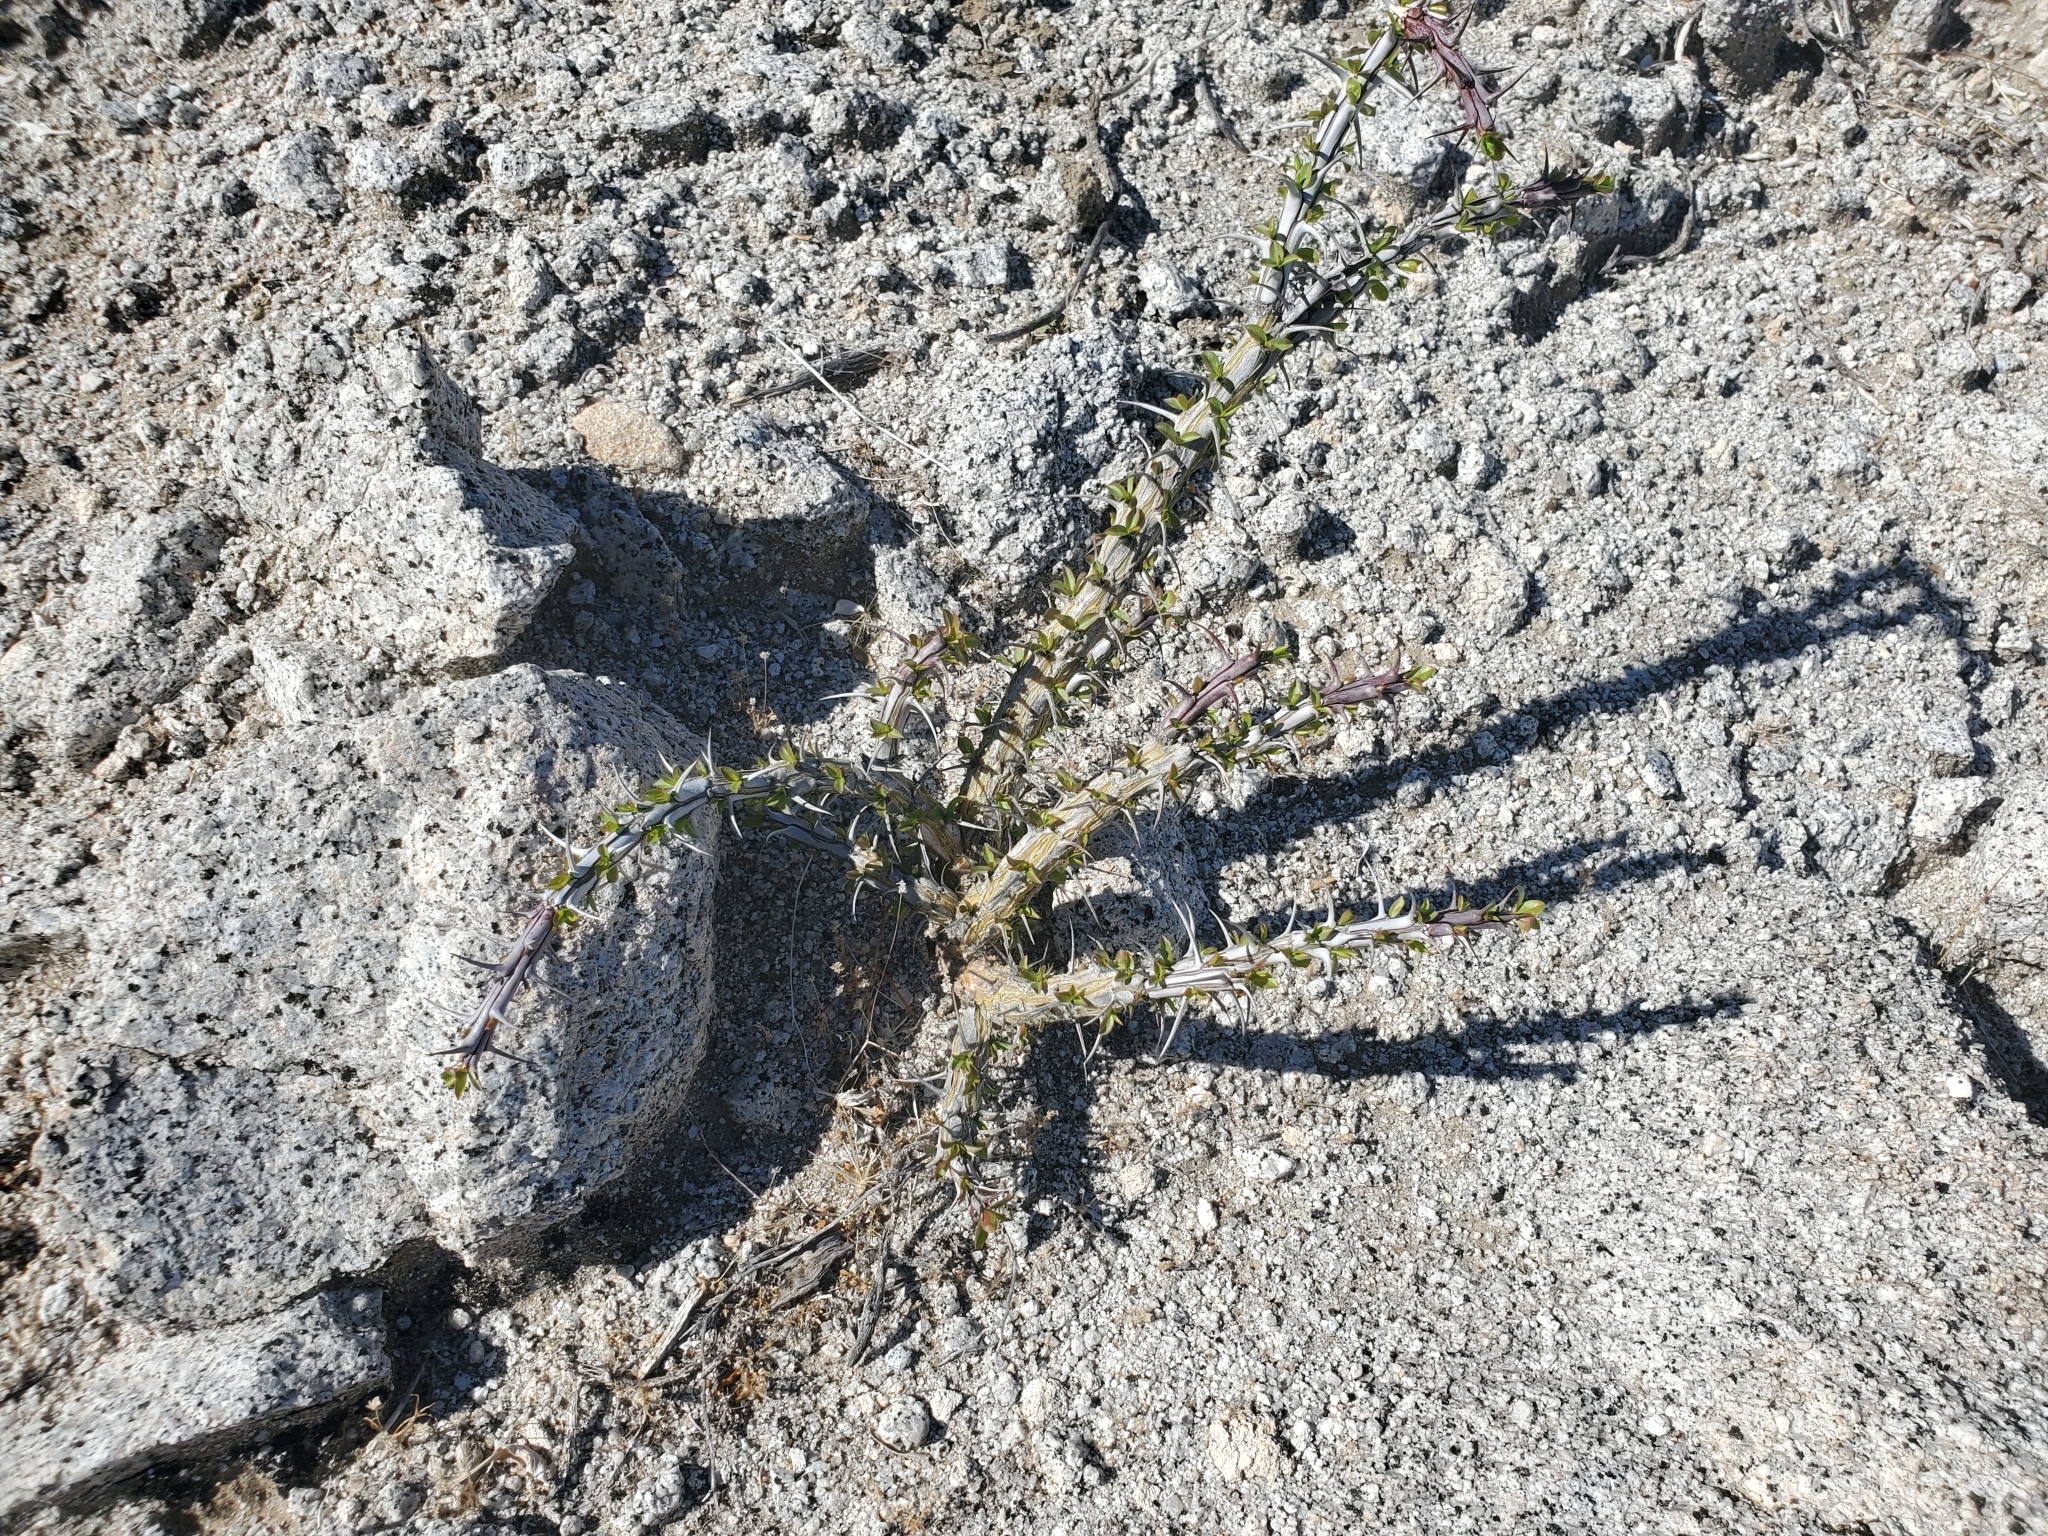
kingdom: Plantae
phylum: Tracheophyta
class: Magnoliopsida
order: Ericales
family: Fouquieriaceae
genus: Fouquieria
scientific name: Fouquieria splendens
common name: Vine-cactus
